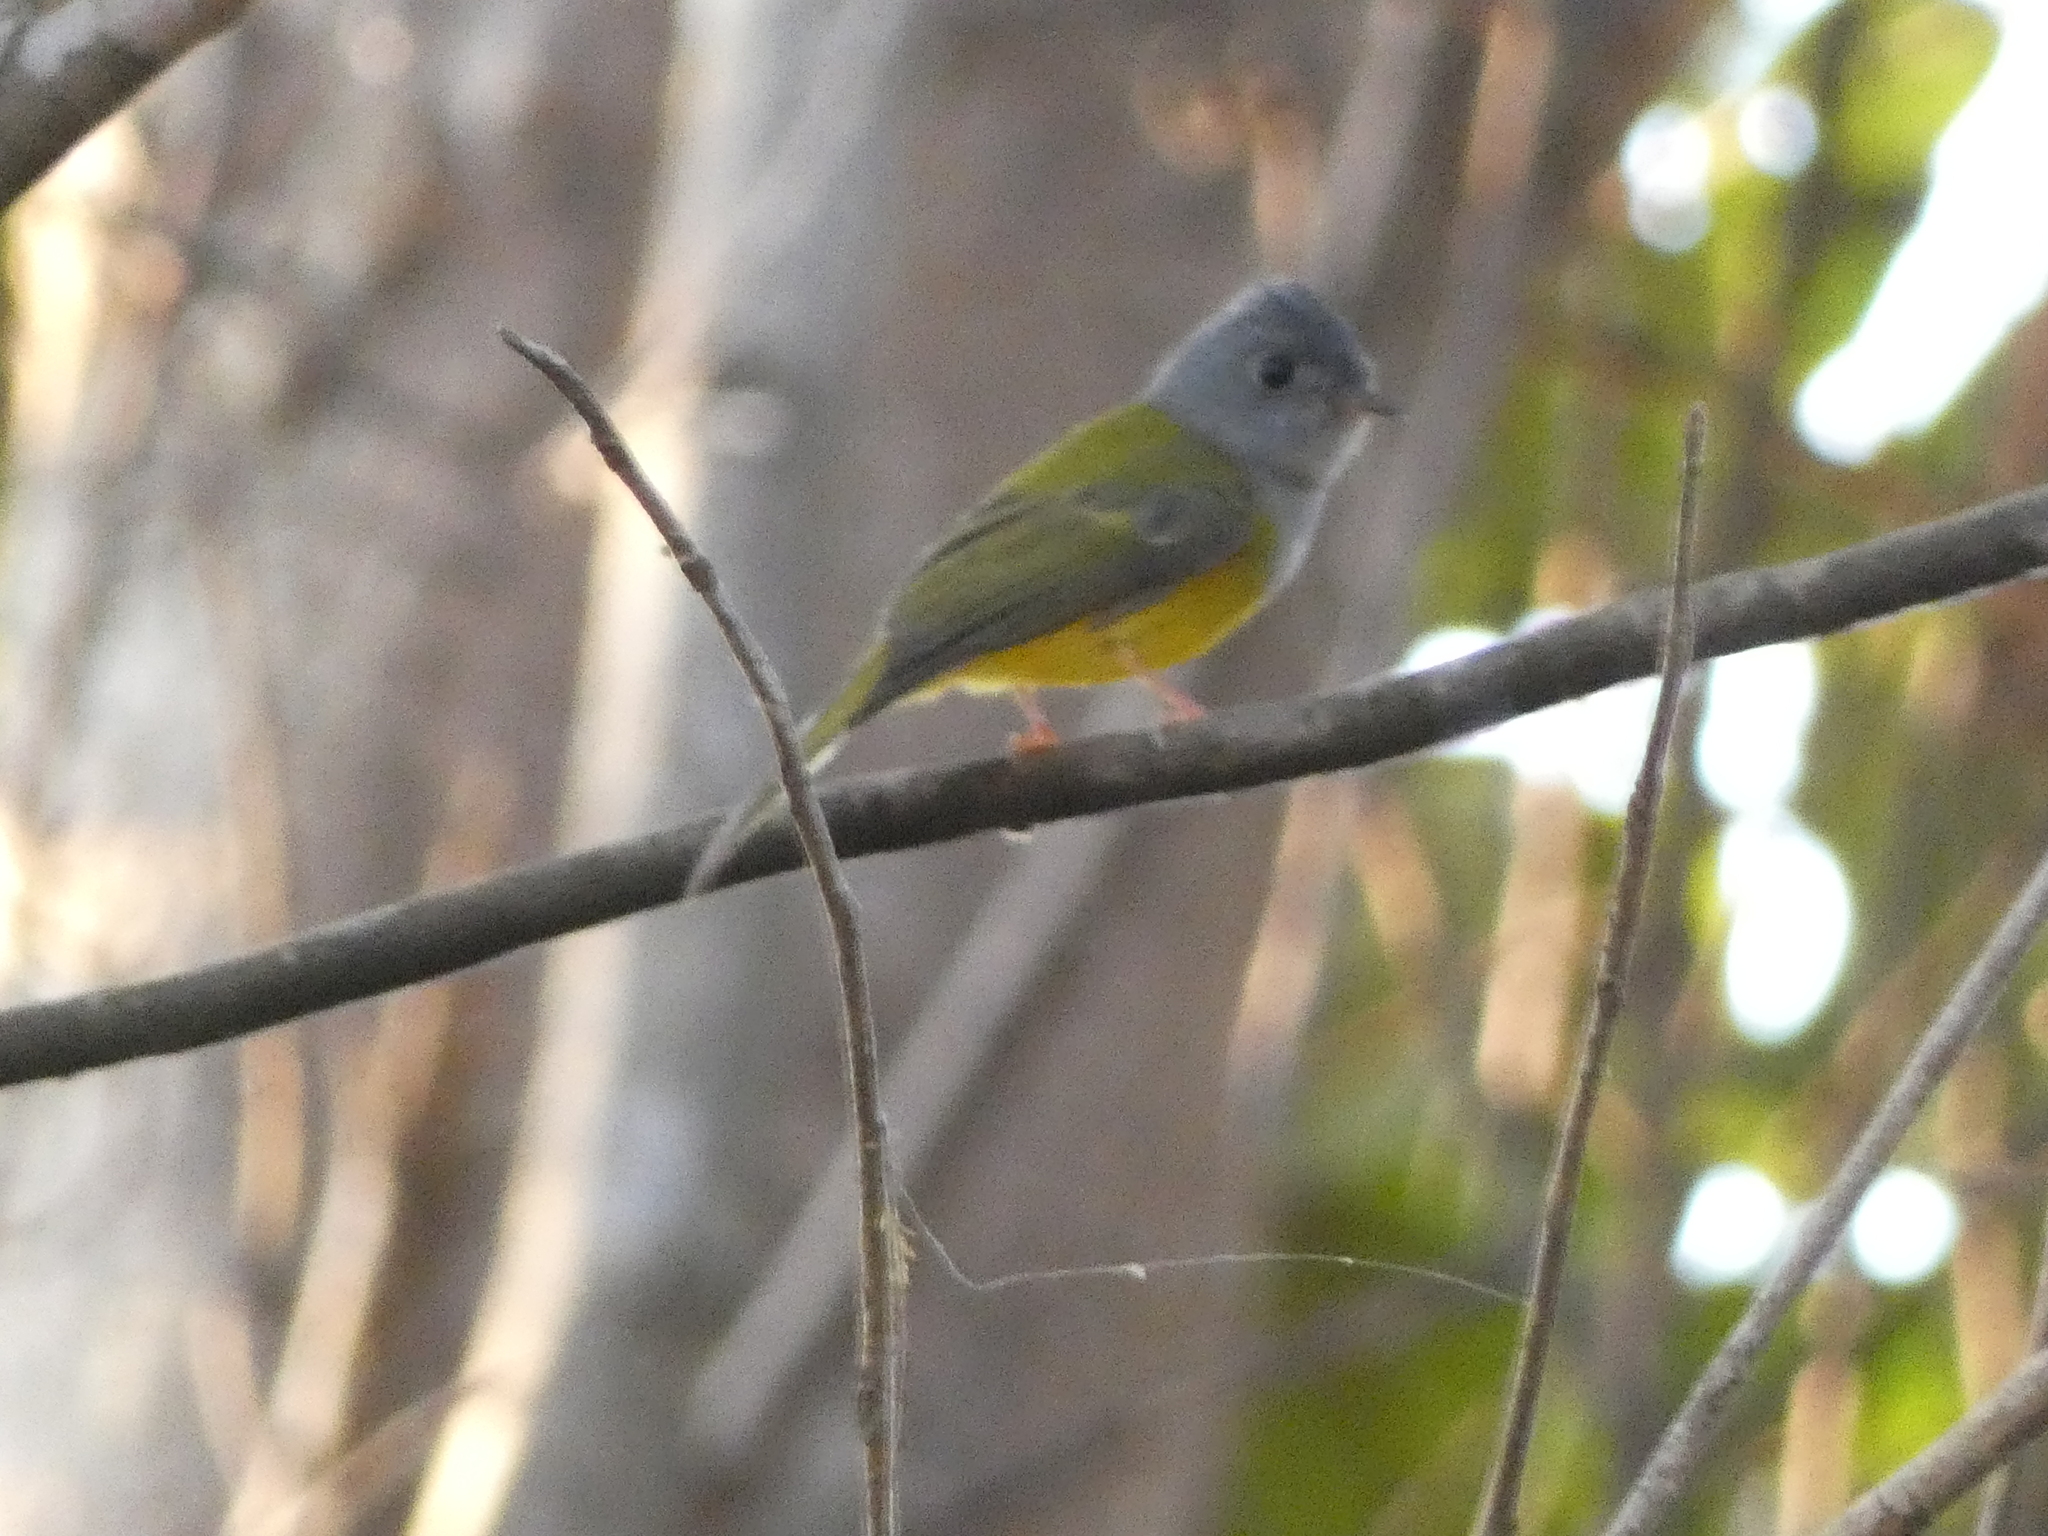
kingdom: Animalia
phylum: Chordata
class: Aves
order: Passeriformes
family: Stenostiridae
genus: Culicicapa
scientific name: Culicicapa ceylonensis
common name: Grey-headed canary-flycatcher
